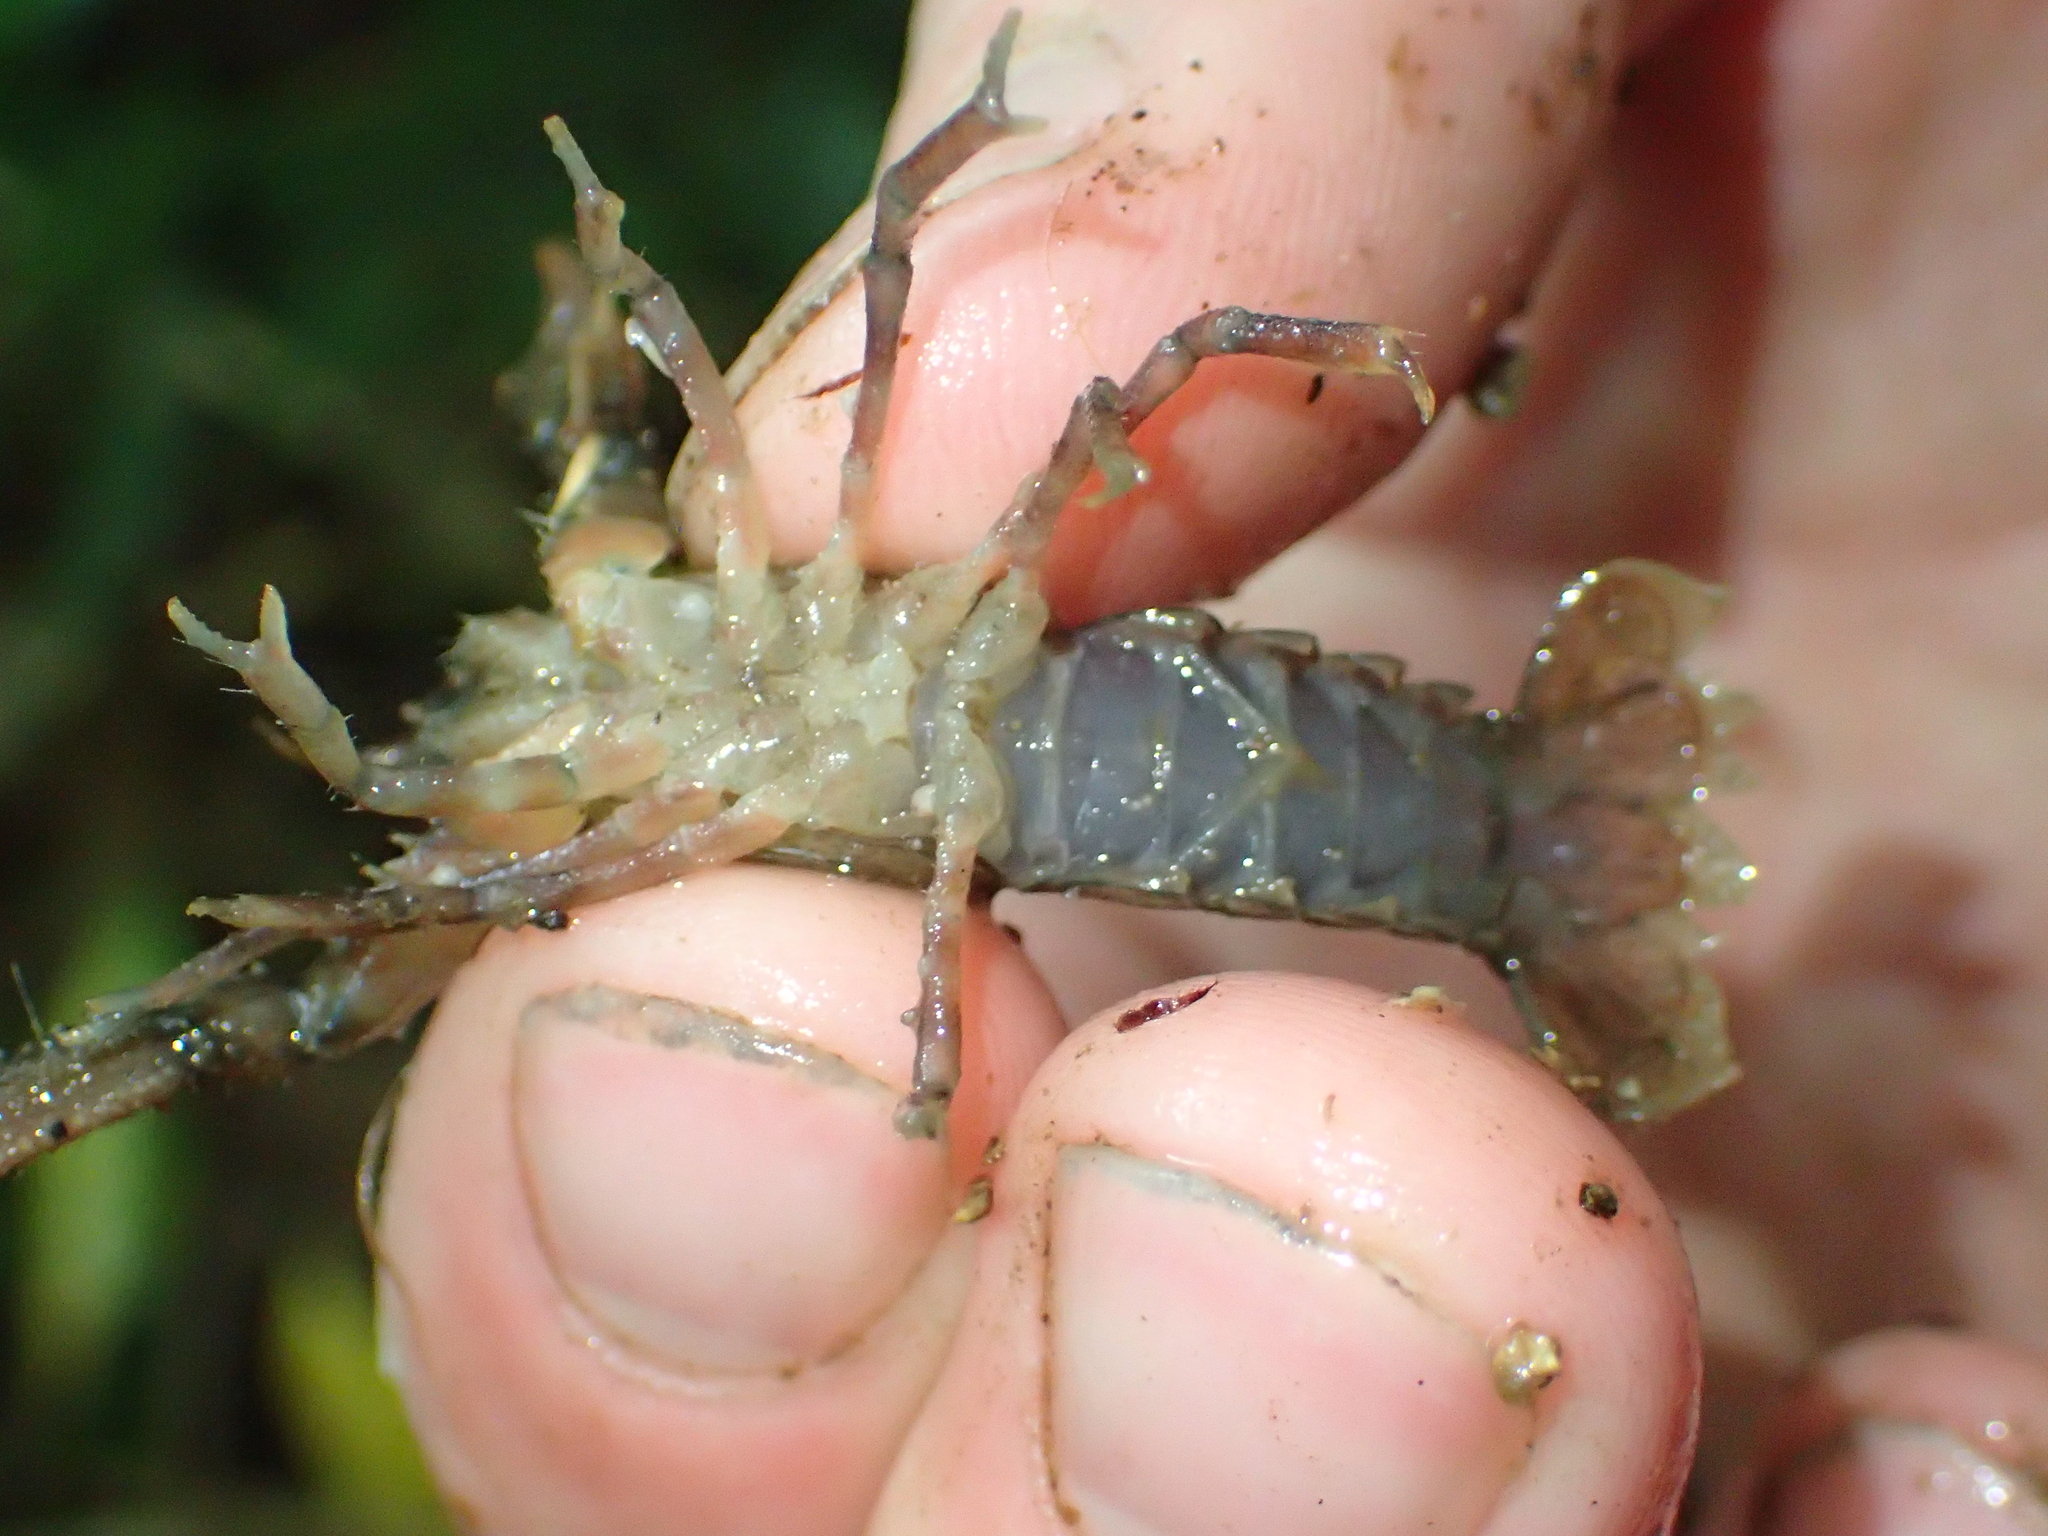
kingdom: Animalia
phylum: Arthropoda
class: Malacostraca
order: Decapoda
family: Parastacidae
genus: Paranephrops
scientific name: Paranephrops planifrons
